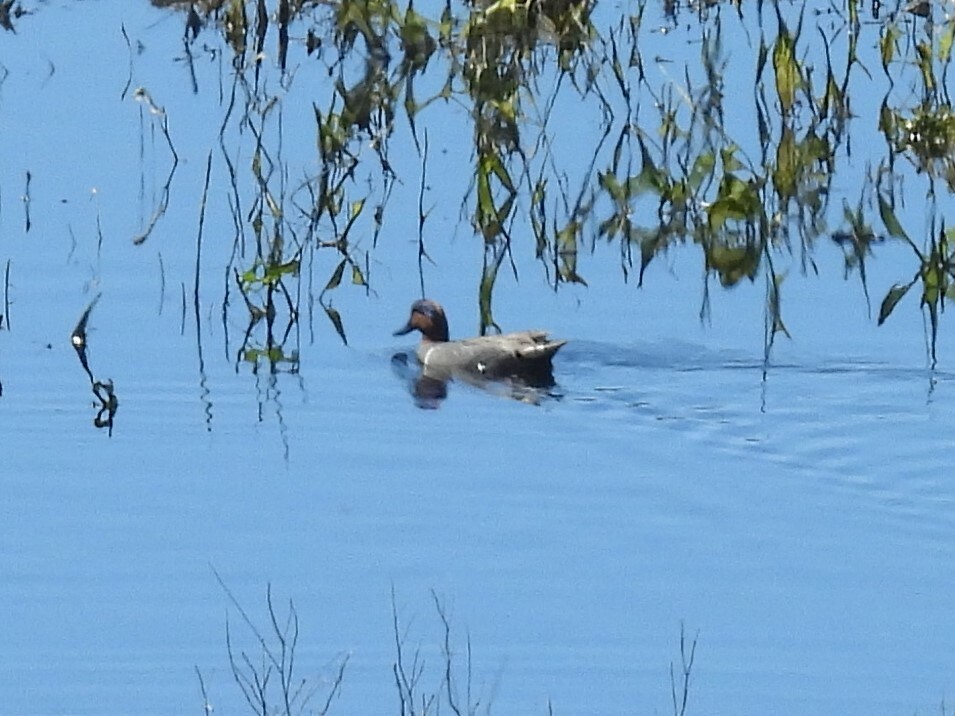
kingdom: Animalia
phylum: Chordata
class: Aves
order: Anseriformes
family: Anatidae
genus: Anas
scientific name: Anas crecca
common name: Eurasian teal
